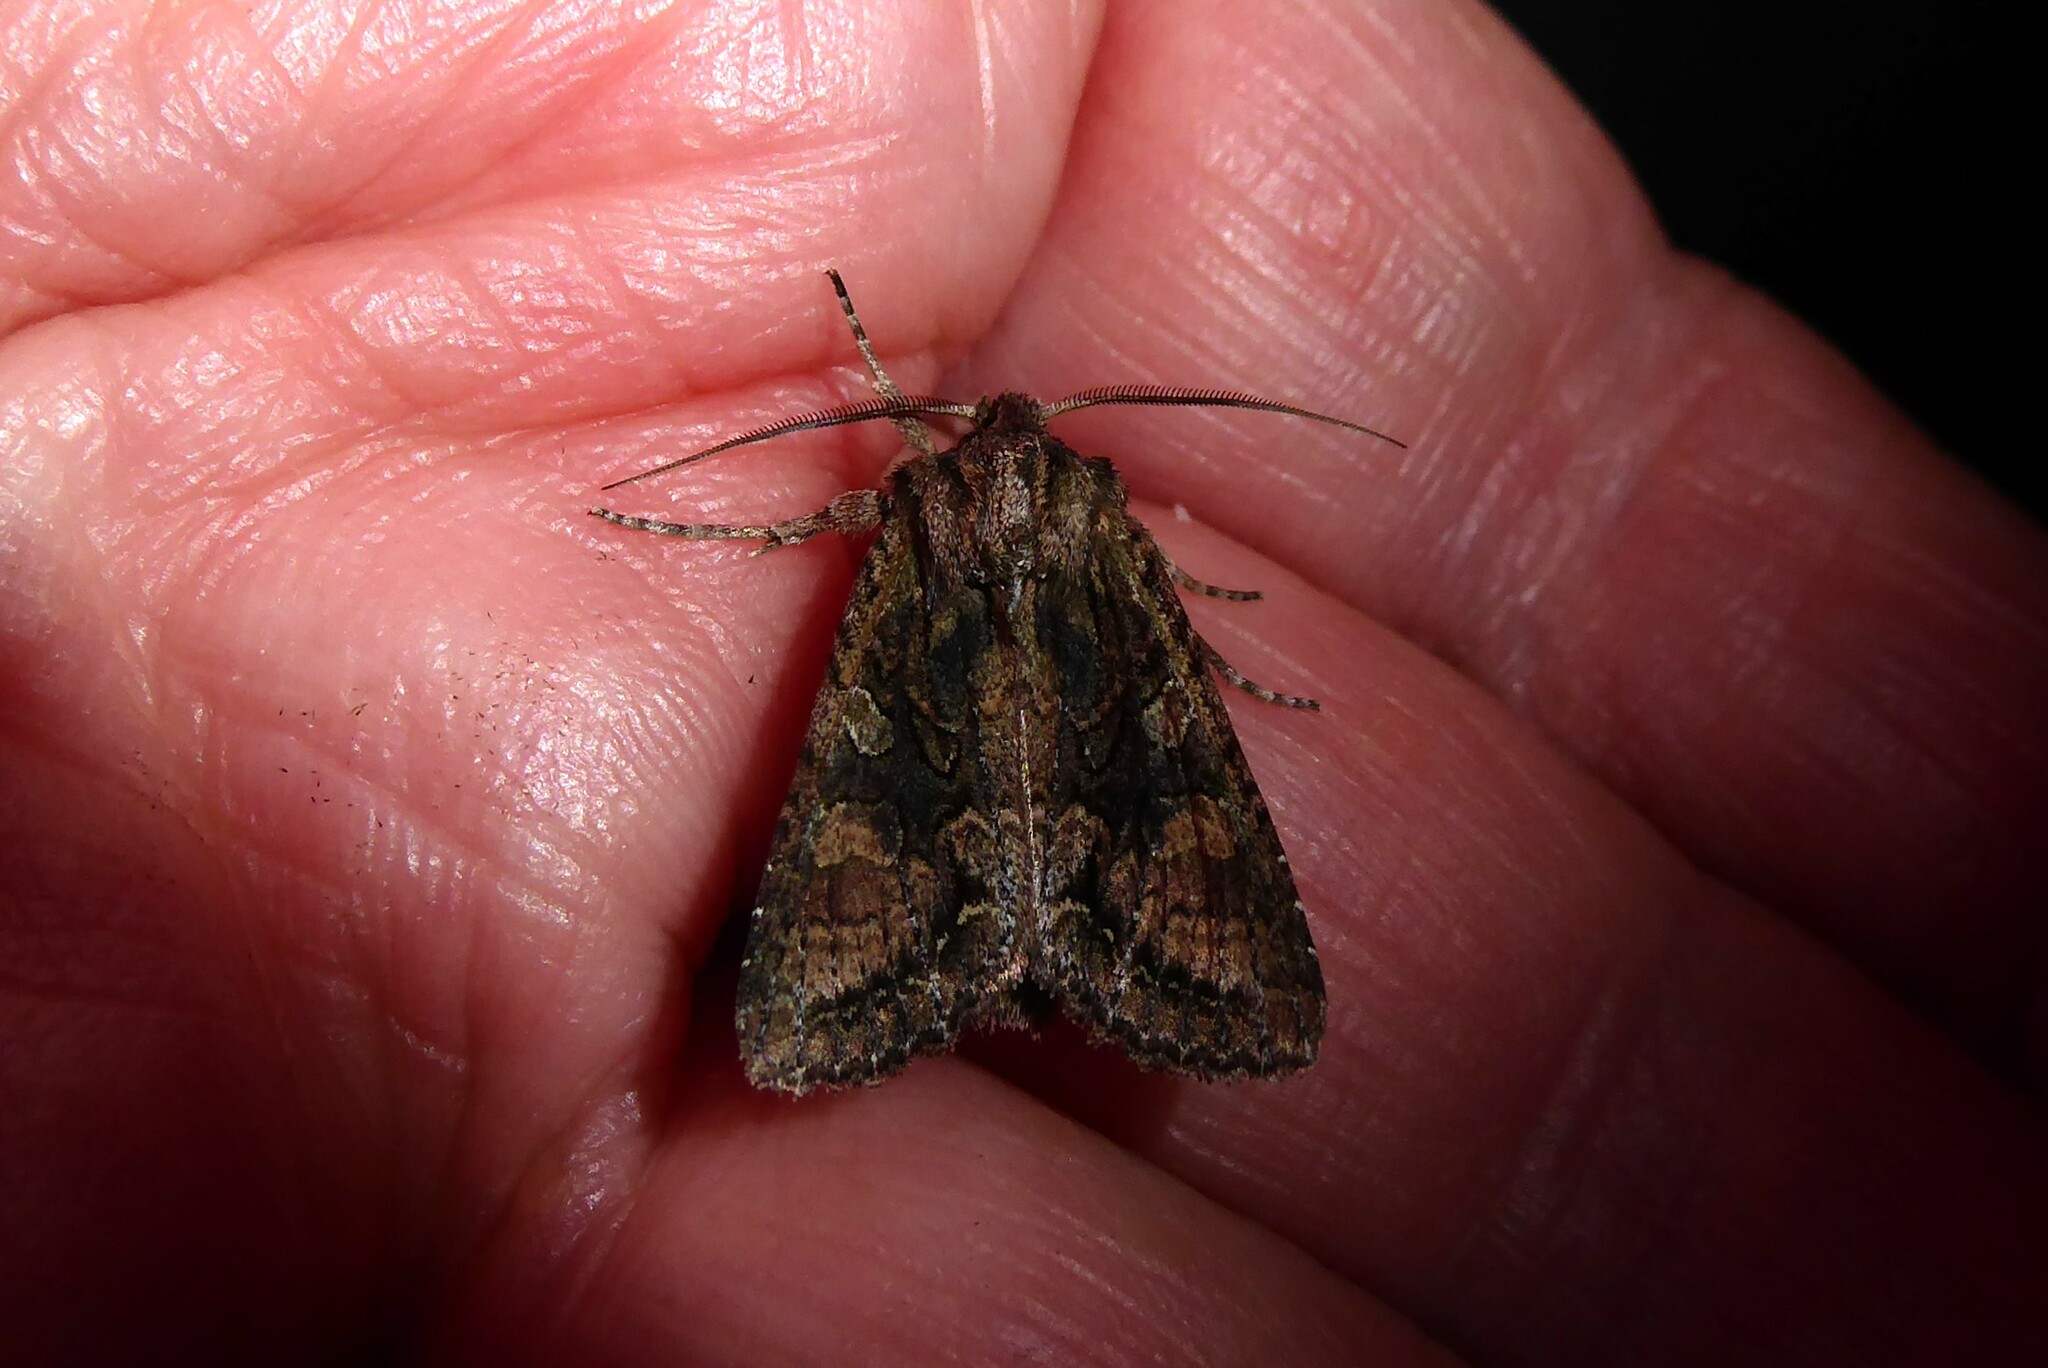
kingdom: Animalia
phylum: Arthropoda
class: Insecta
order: Lepidoptera
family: Noctuidae
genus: Ichneutica
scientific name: Ichneutica mutans
